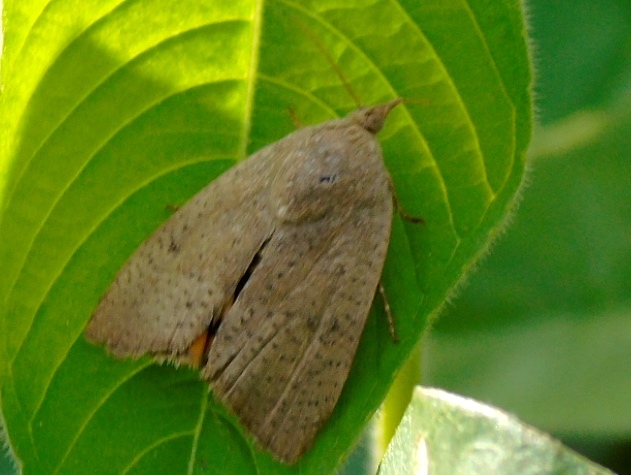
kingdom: Animalia
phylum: Arthropoda
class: Insecta
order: Lepidoptera
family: Tortricidae
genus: Amorbia
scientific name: Amorbia
